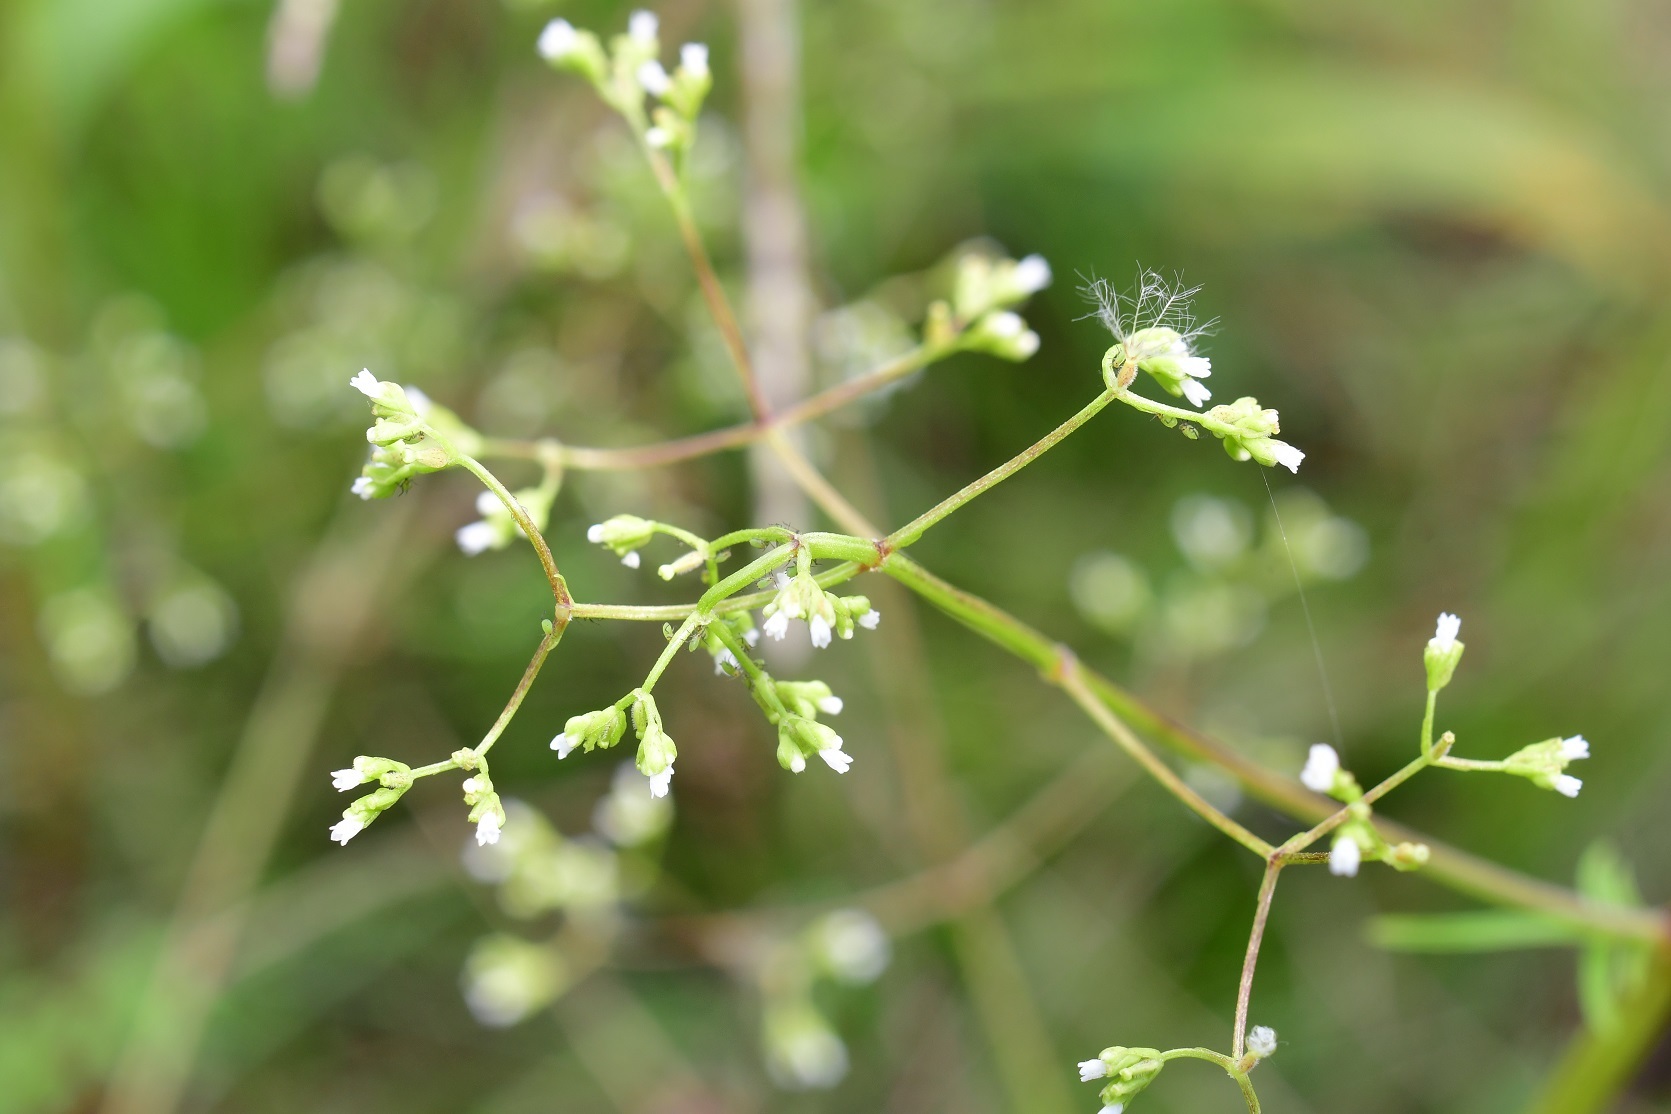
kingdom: Plantae
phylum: Tracheophyta
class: Magnoliopsida
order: Dipsacales
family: Caprifoliaceae
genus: Valeriana
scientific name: Valeriana sorbifolia
